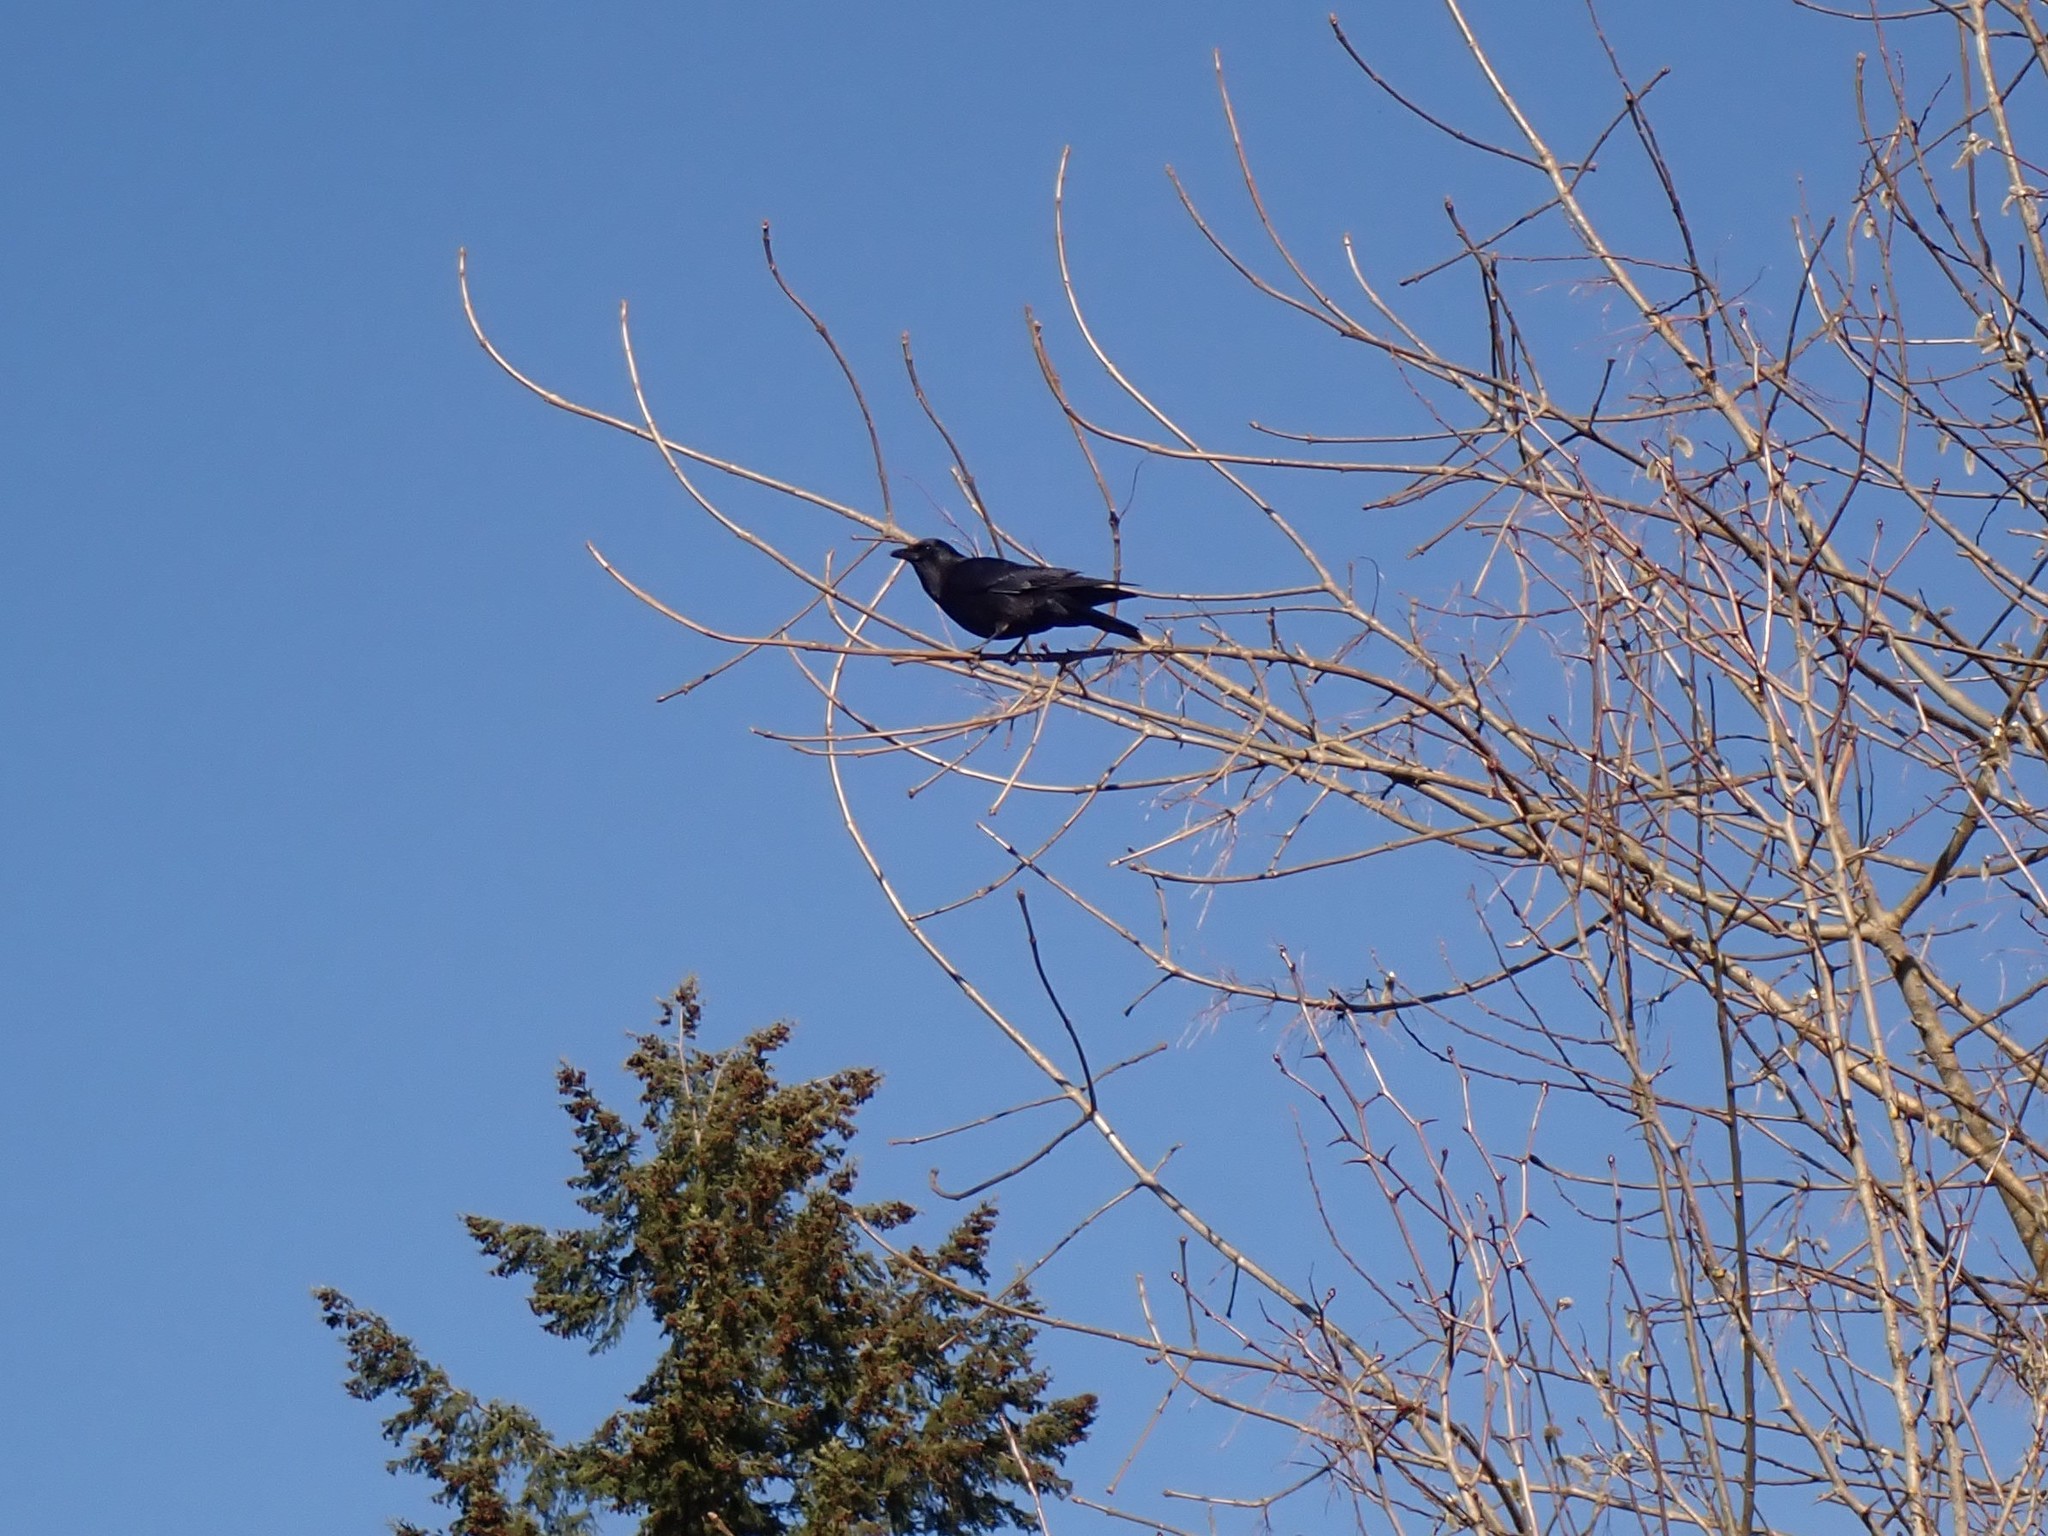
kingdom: Animalia
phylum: Chordata
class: Aves
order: Passeriformes
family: Corvidae
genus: Corvus
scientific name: Corvus brachyrhynchos
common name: American crow
